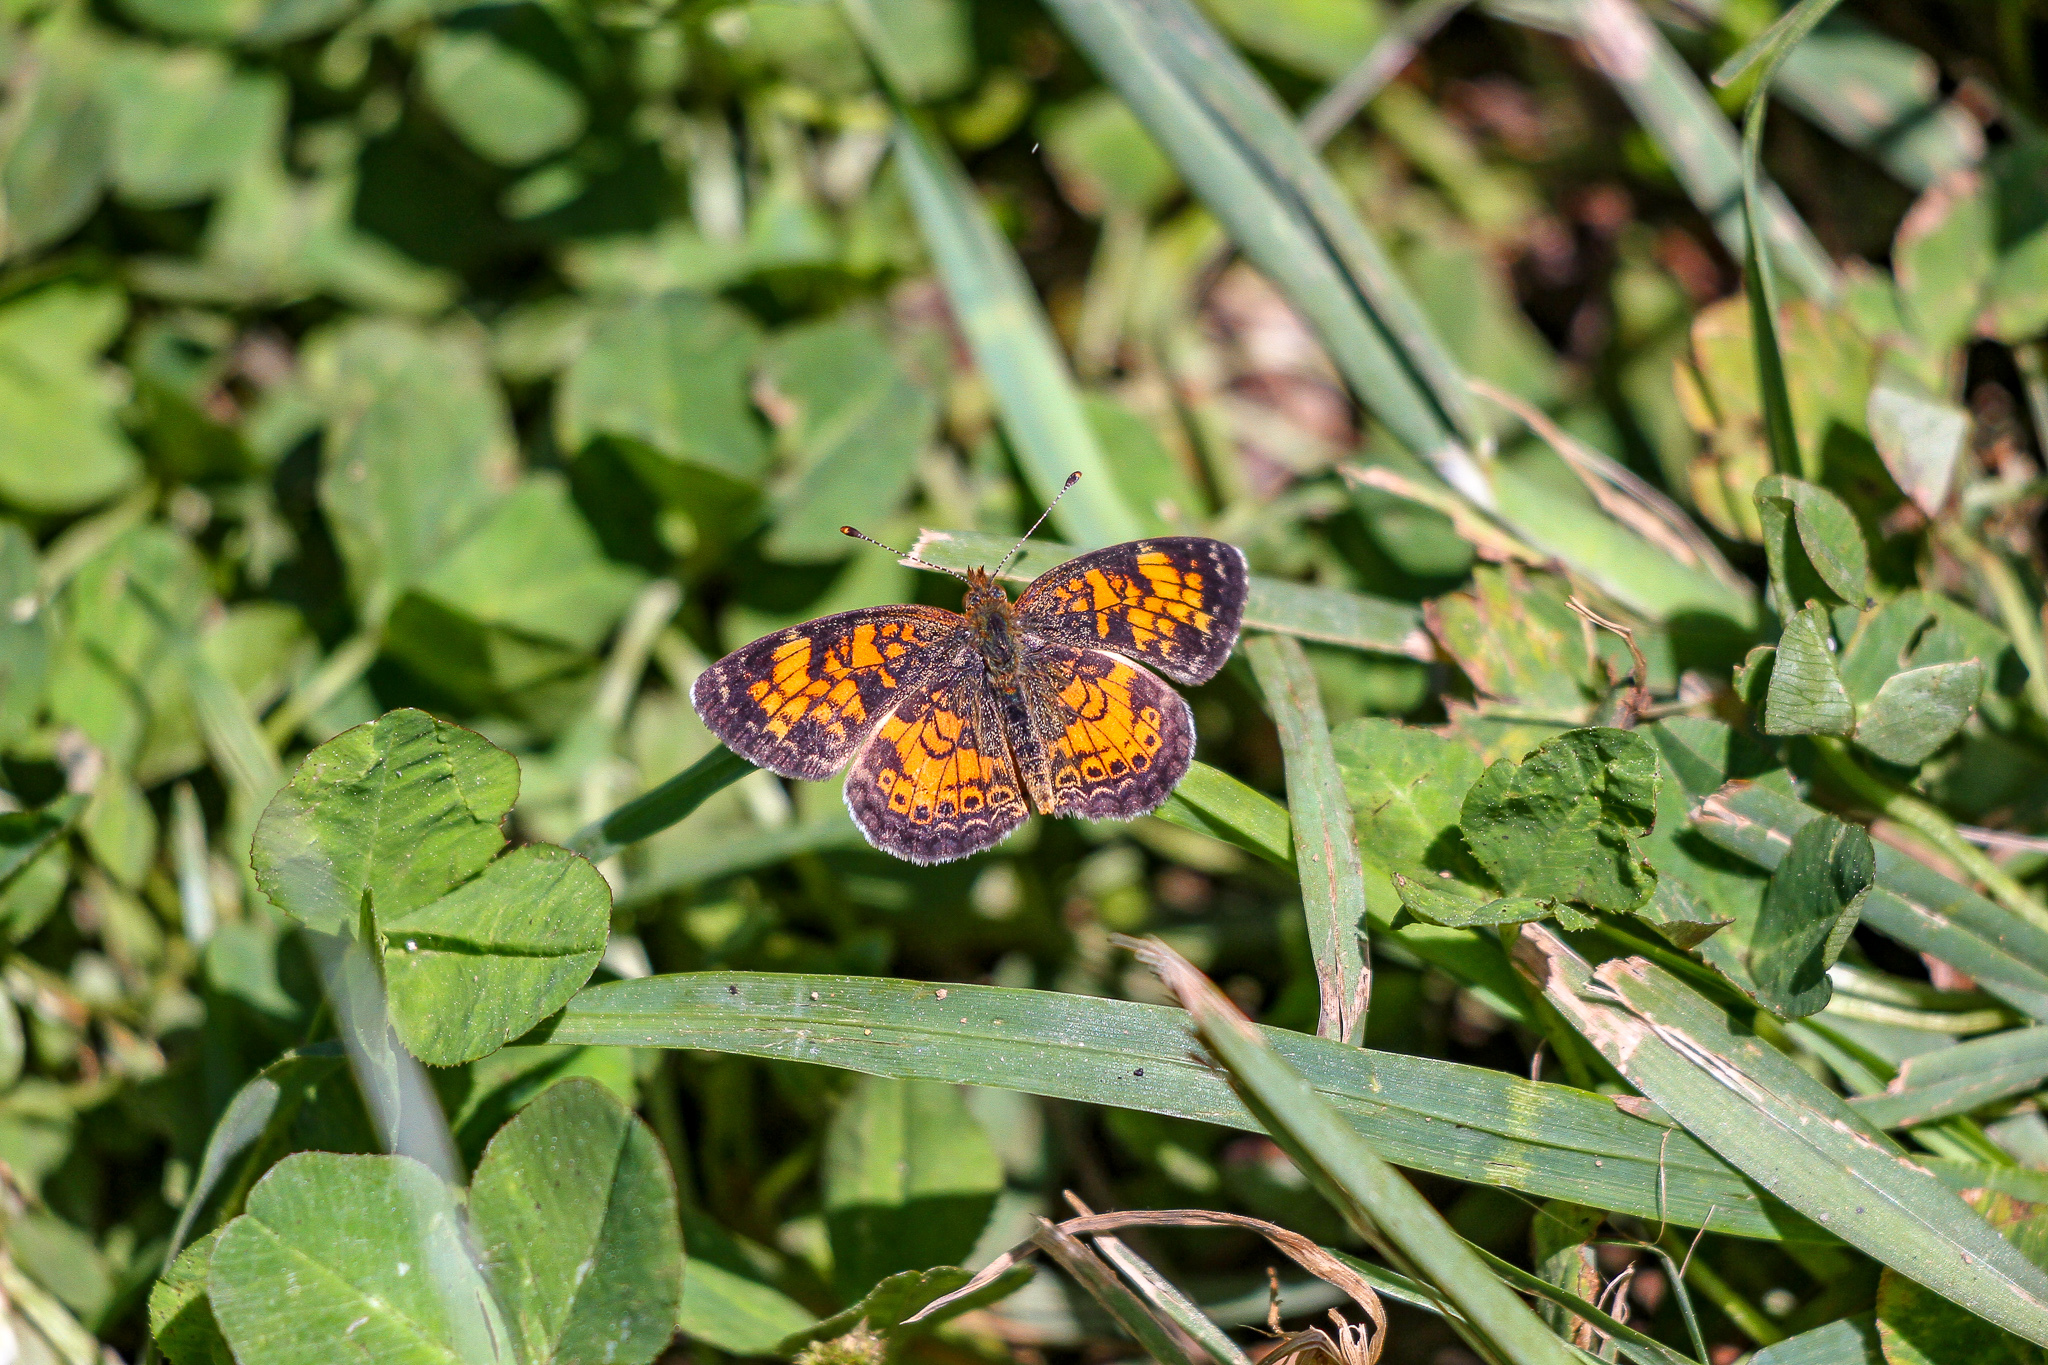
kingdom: Animalia
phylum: Arthropoda
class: Insecta
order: Lepidoptera
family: Nymphalidae
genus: Phyciodes
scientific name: Phyciodes tharos
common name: Pearl crescent
